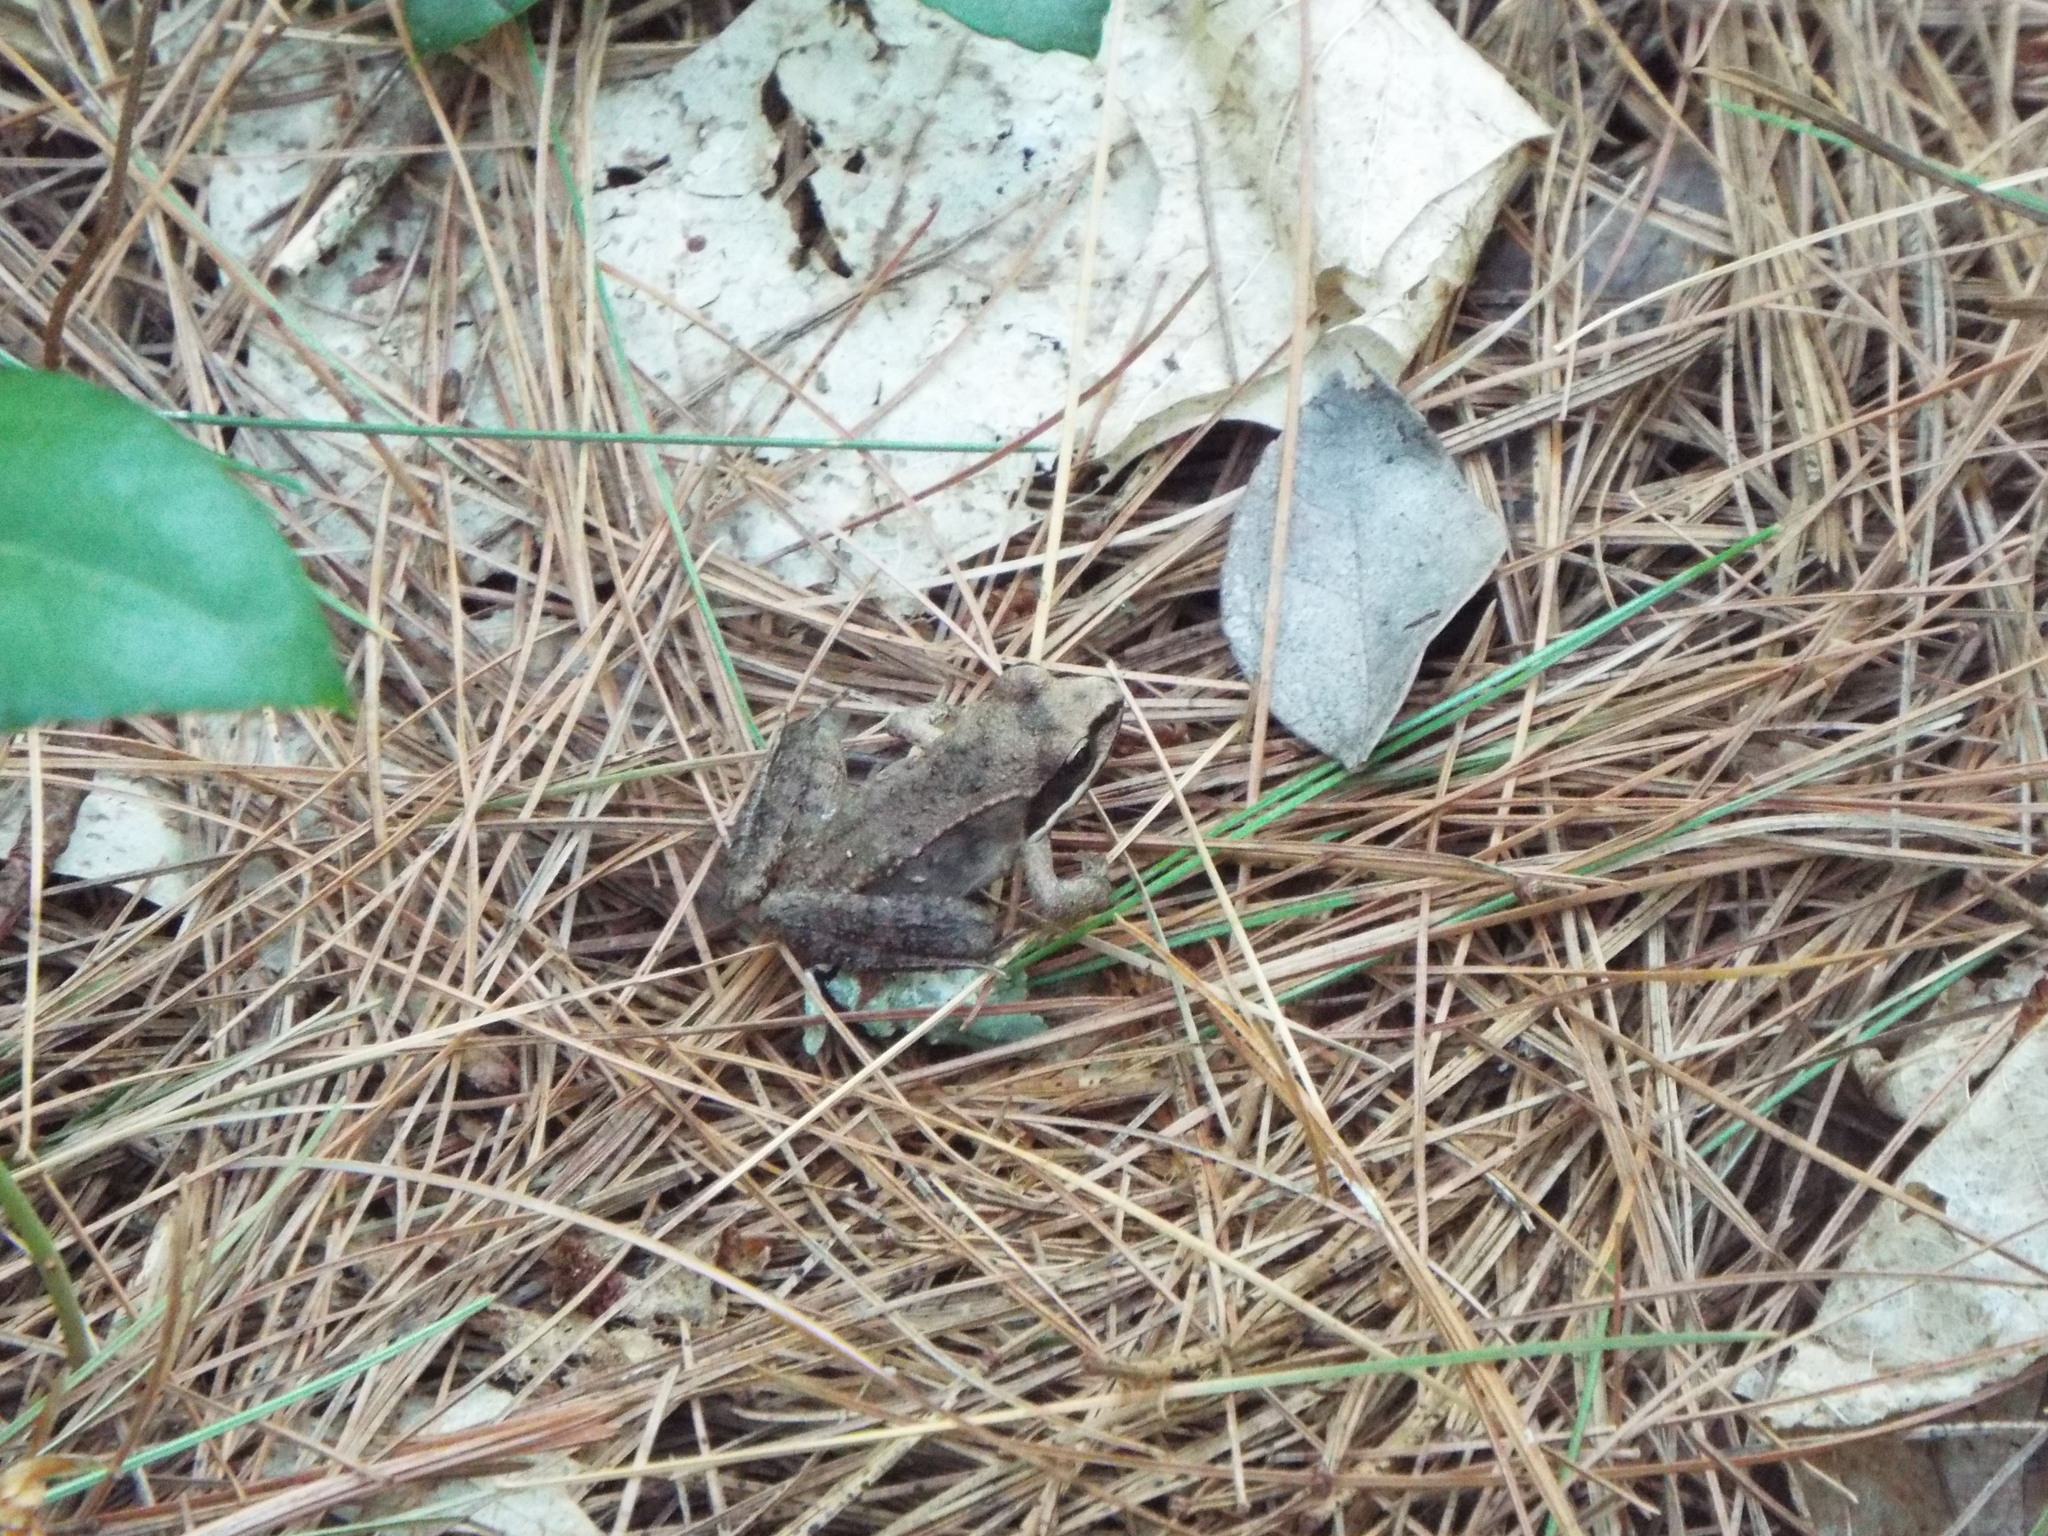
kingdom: Animalia
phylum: Chordata
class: Amphibia
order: Anura
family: Ranidae
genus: Lithobates
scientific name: Lithobates sylvaticus
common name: Wood frog
